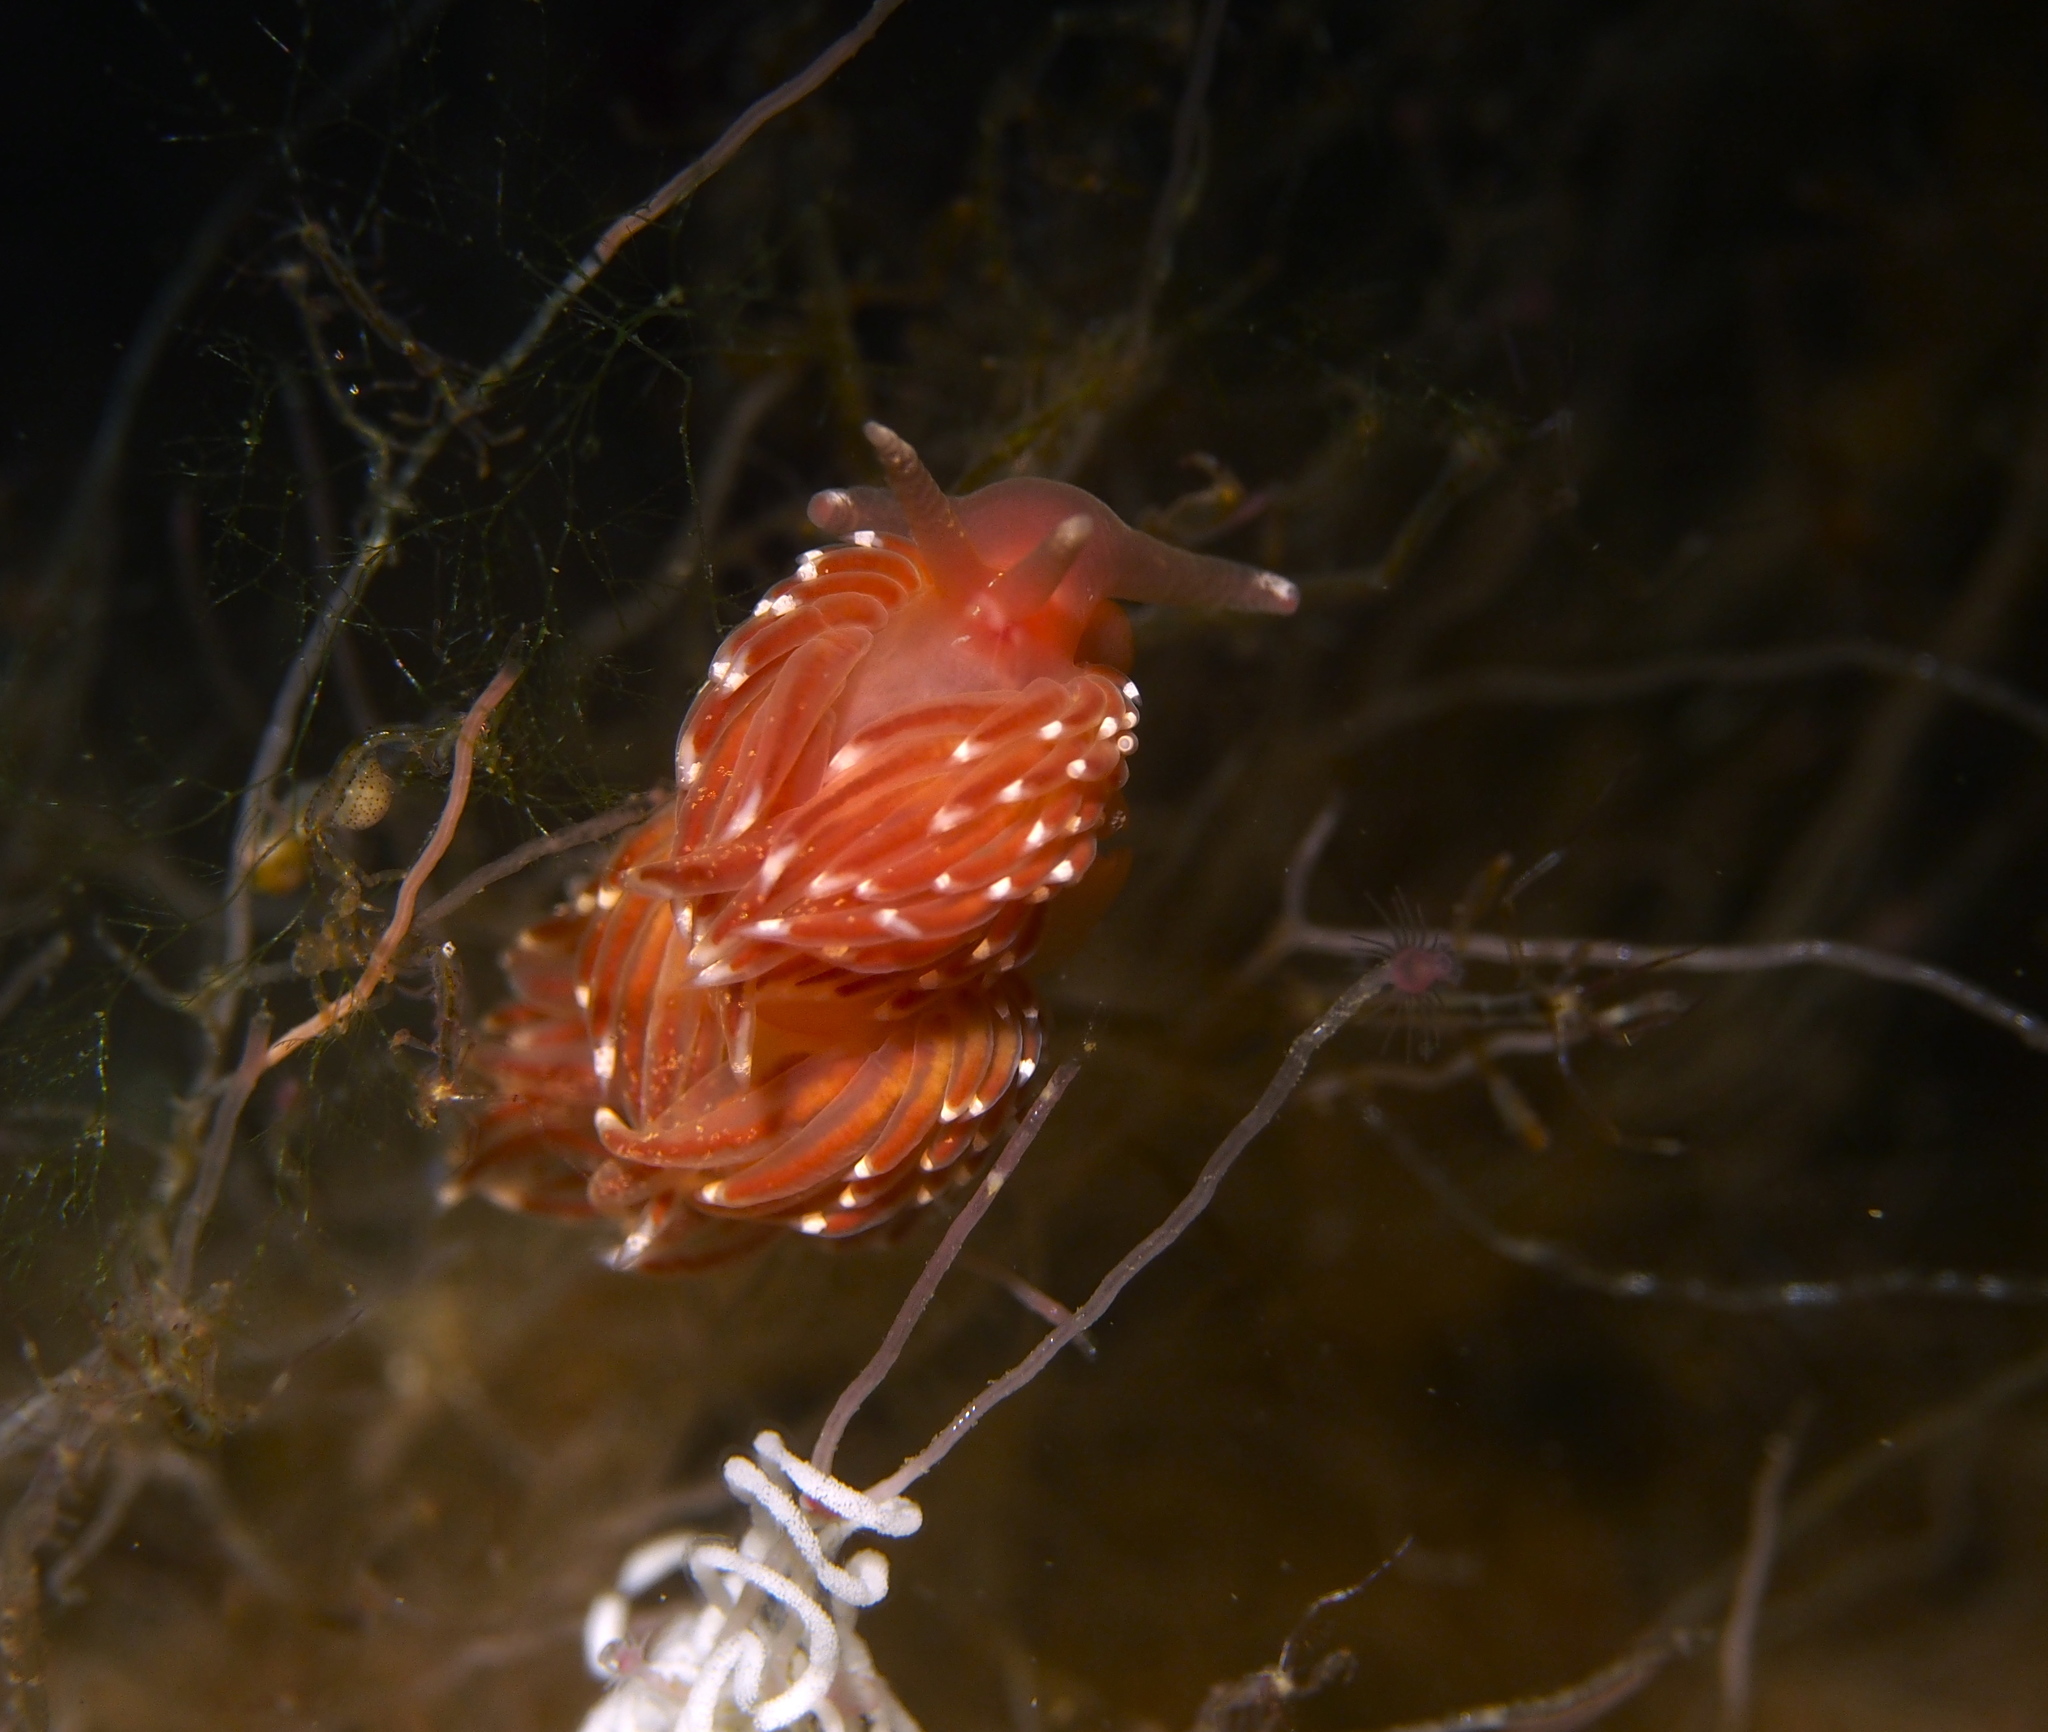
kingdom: Animalia
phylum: Mollusca
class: Gastropoda
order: Nudibranchia
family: Facelinidae
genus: Facelina
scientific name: Facelina bostoniensis
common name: Boston facelina
